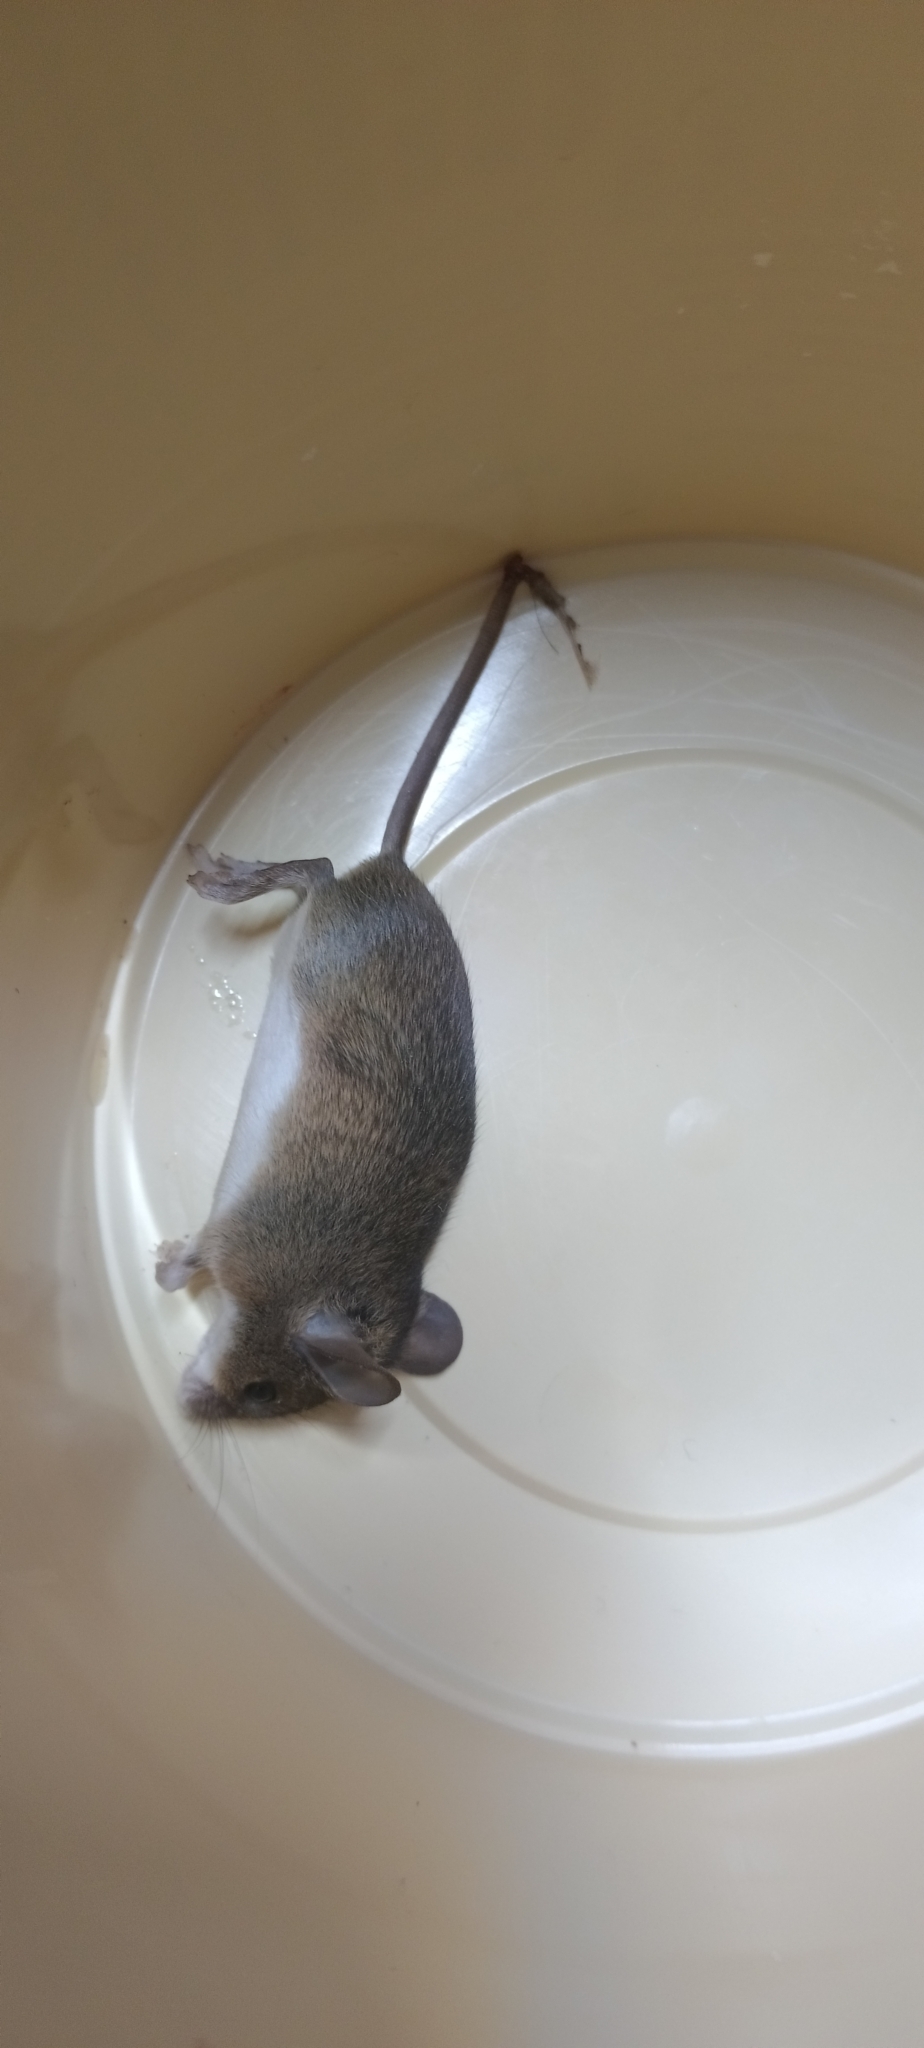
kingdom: Animalia
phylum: Chordata
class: Mammalia
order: Rodentia
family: Muridae
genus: Mus
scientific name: Mus minutoides
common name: Southern african pygmy mouse
